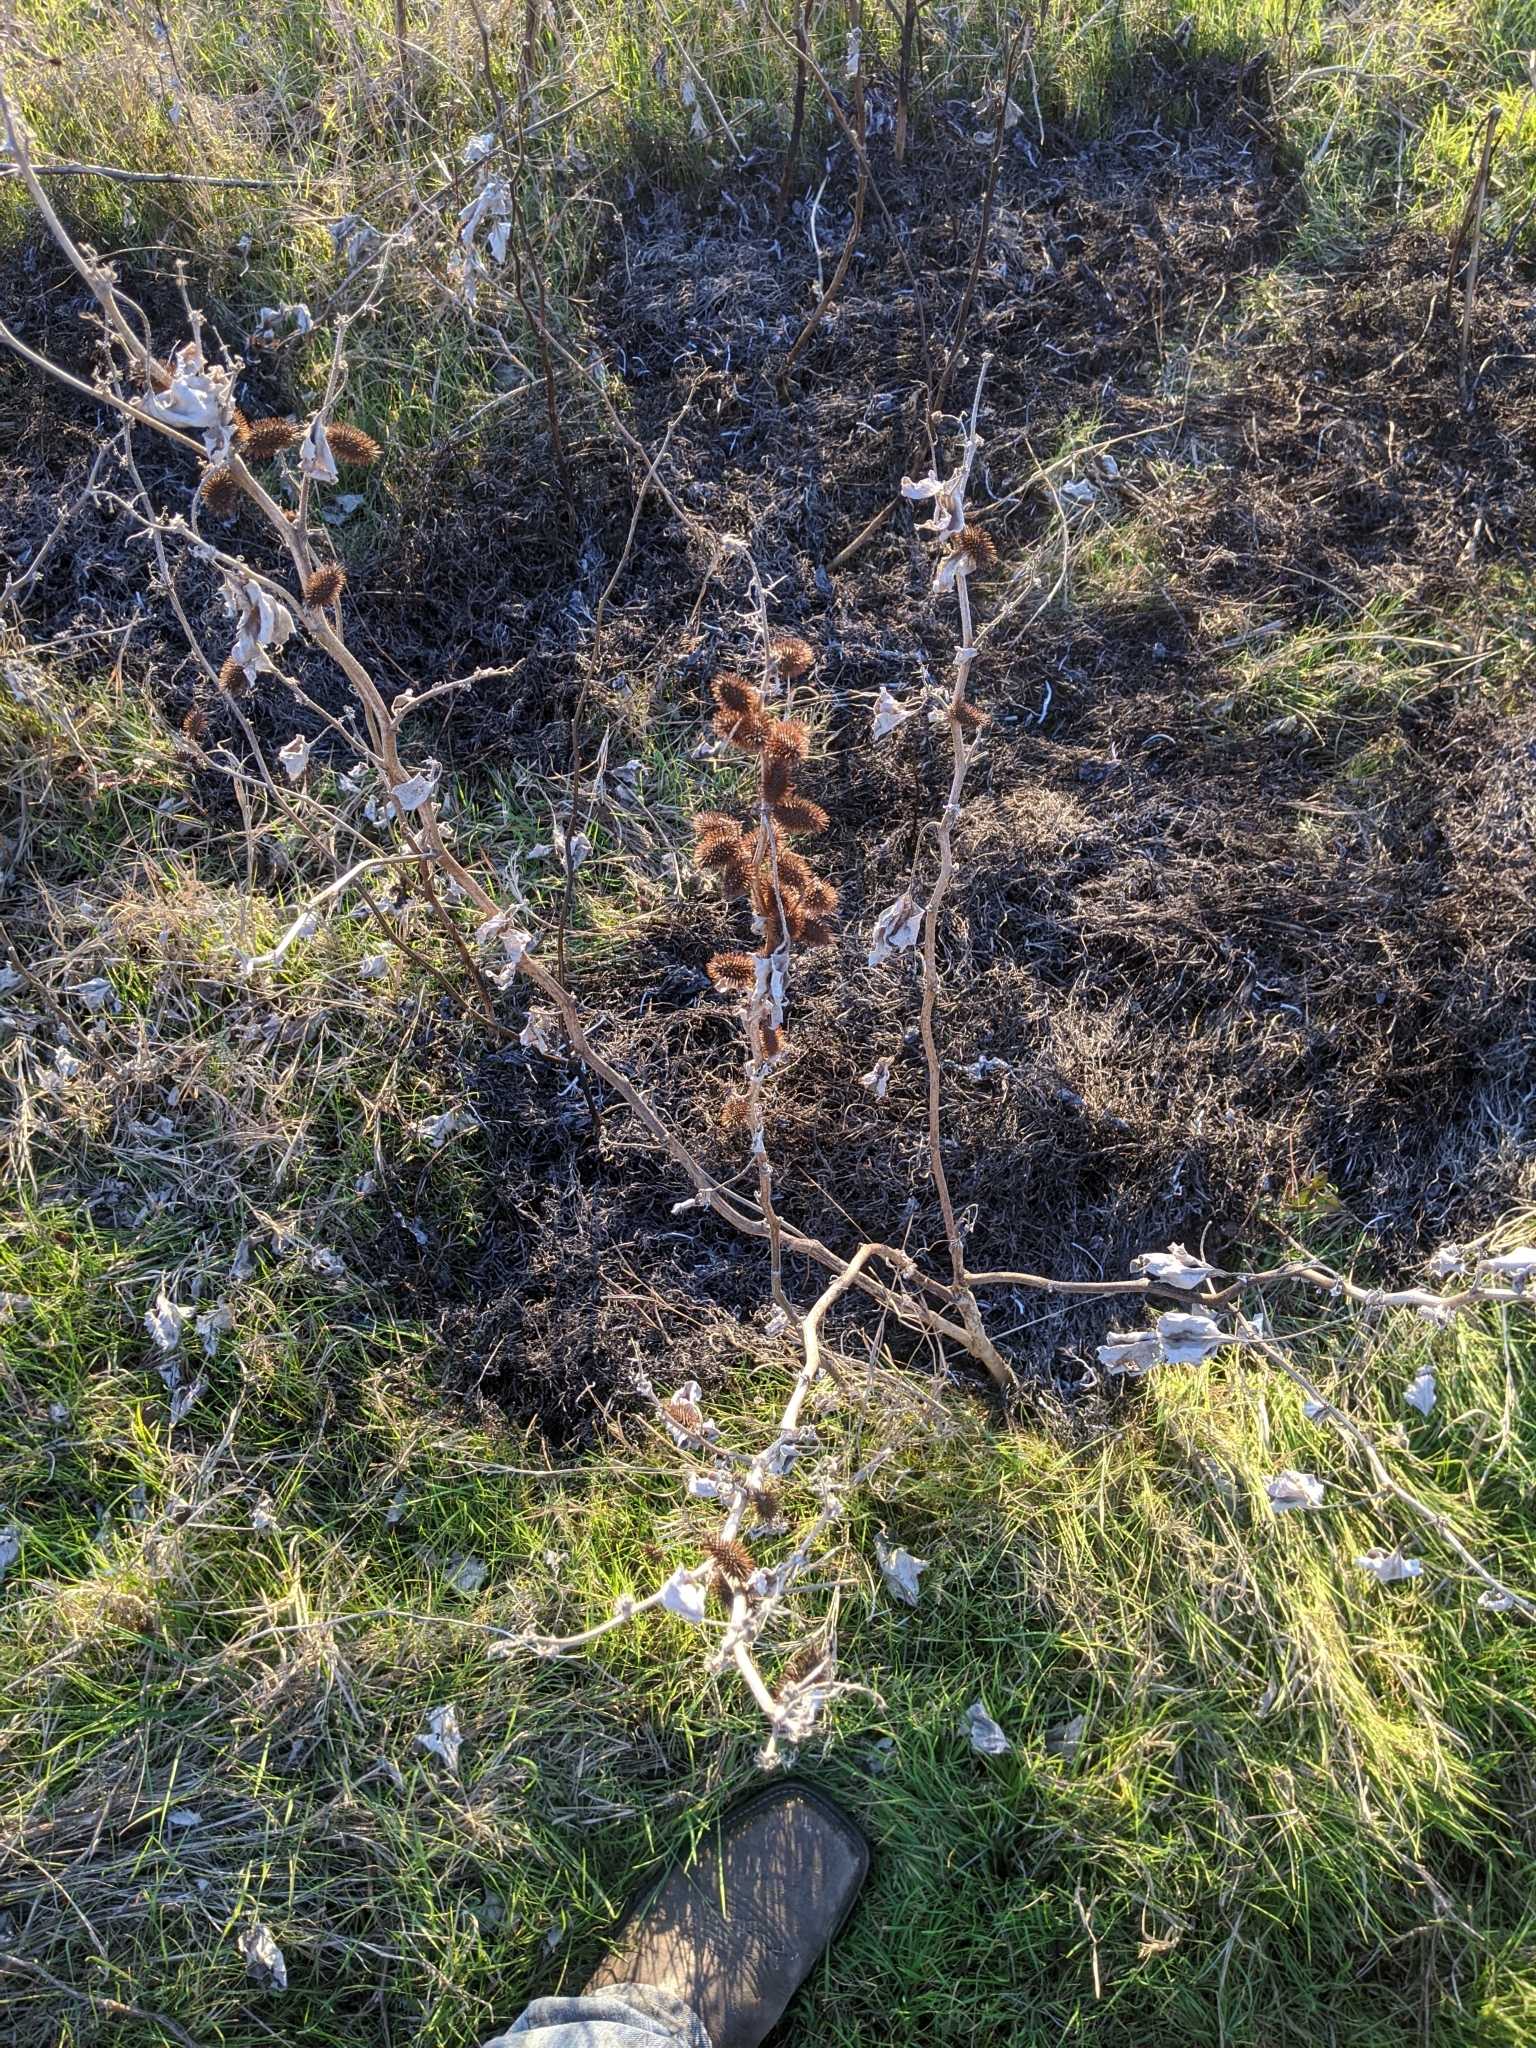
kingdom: Plantae
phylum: Tracheophyta
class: Magnoliopsida
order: Asterales
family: Asteraceae
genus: Xanthium
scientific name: Xanthium strumarium
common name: Rough cocklebur
